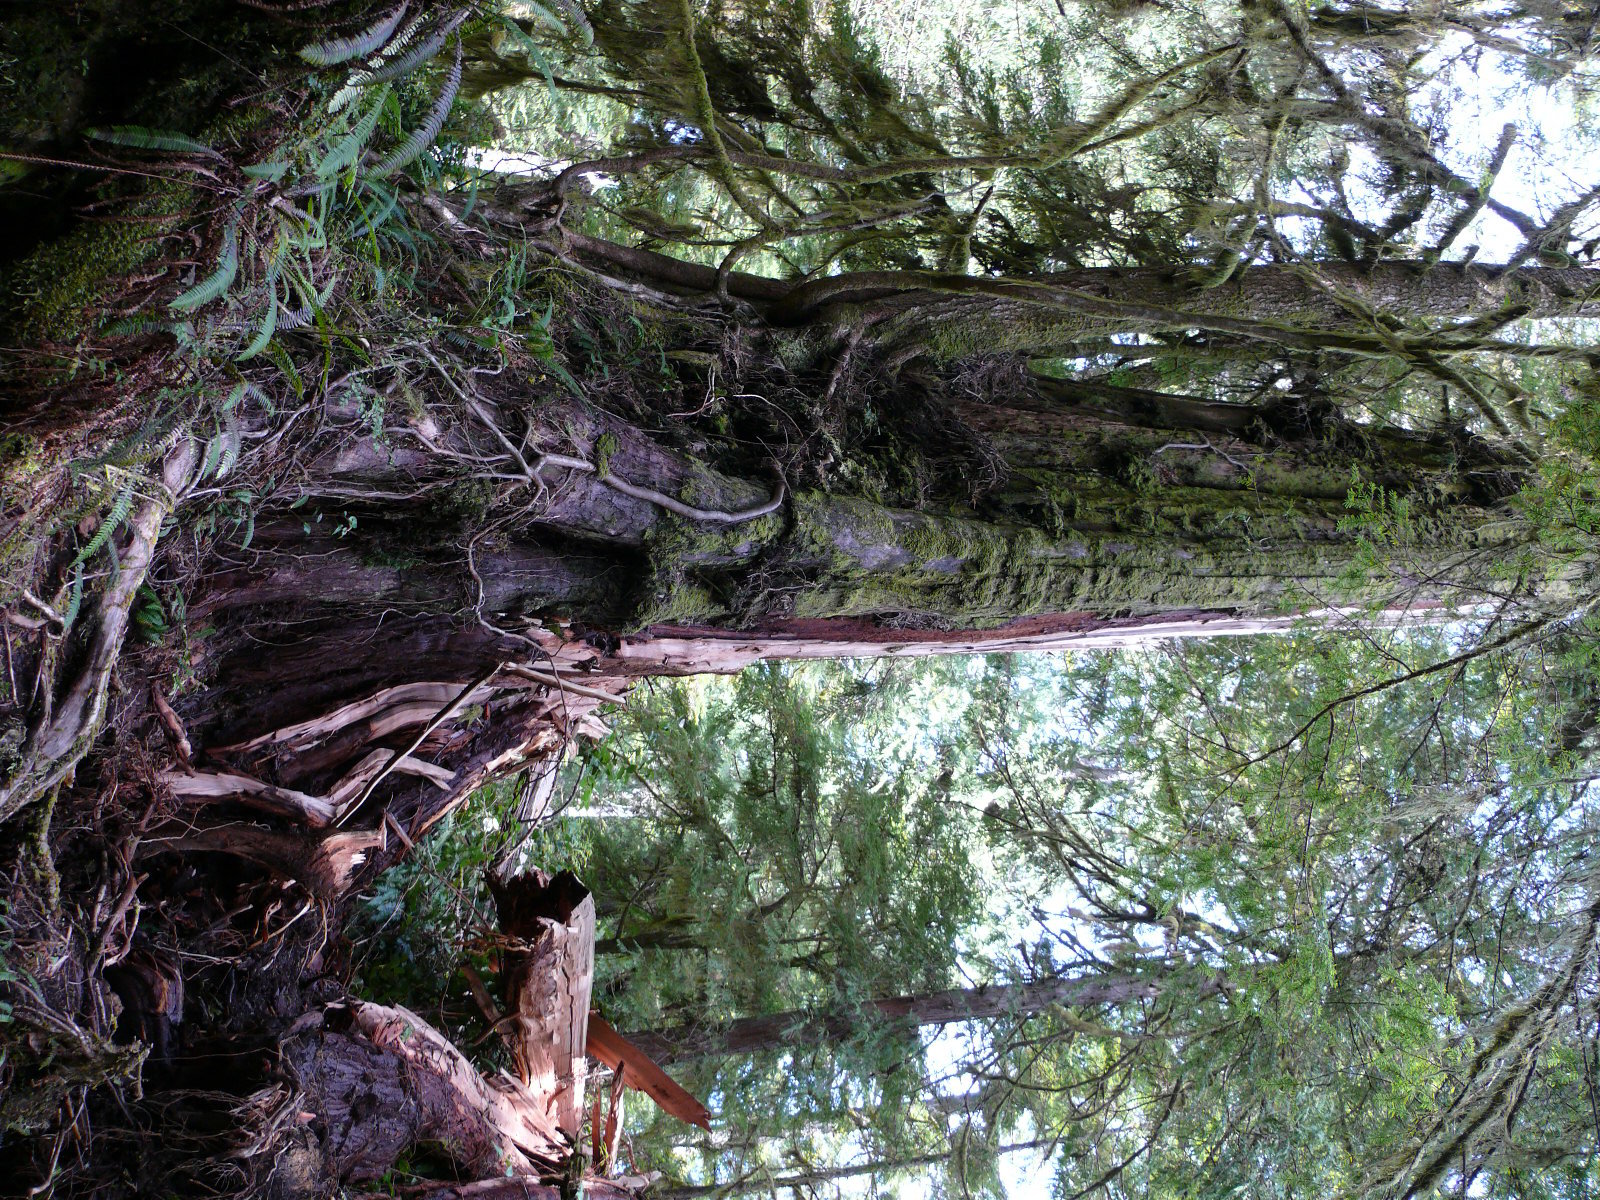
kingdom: Plantae
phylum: Tracheophyta
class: Pinopsida
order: Pinales
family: Cupressaceae
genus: Thuja
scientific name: Thuja plicata
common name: Western red-cedar
